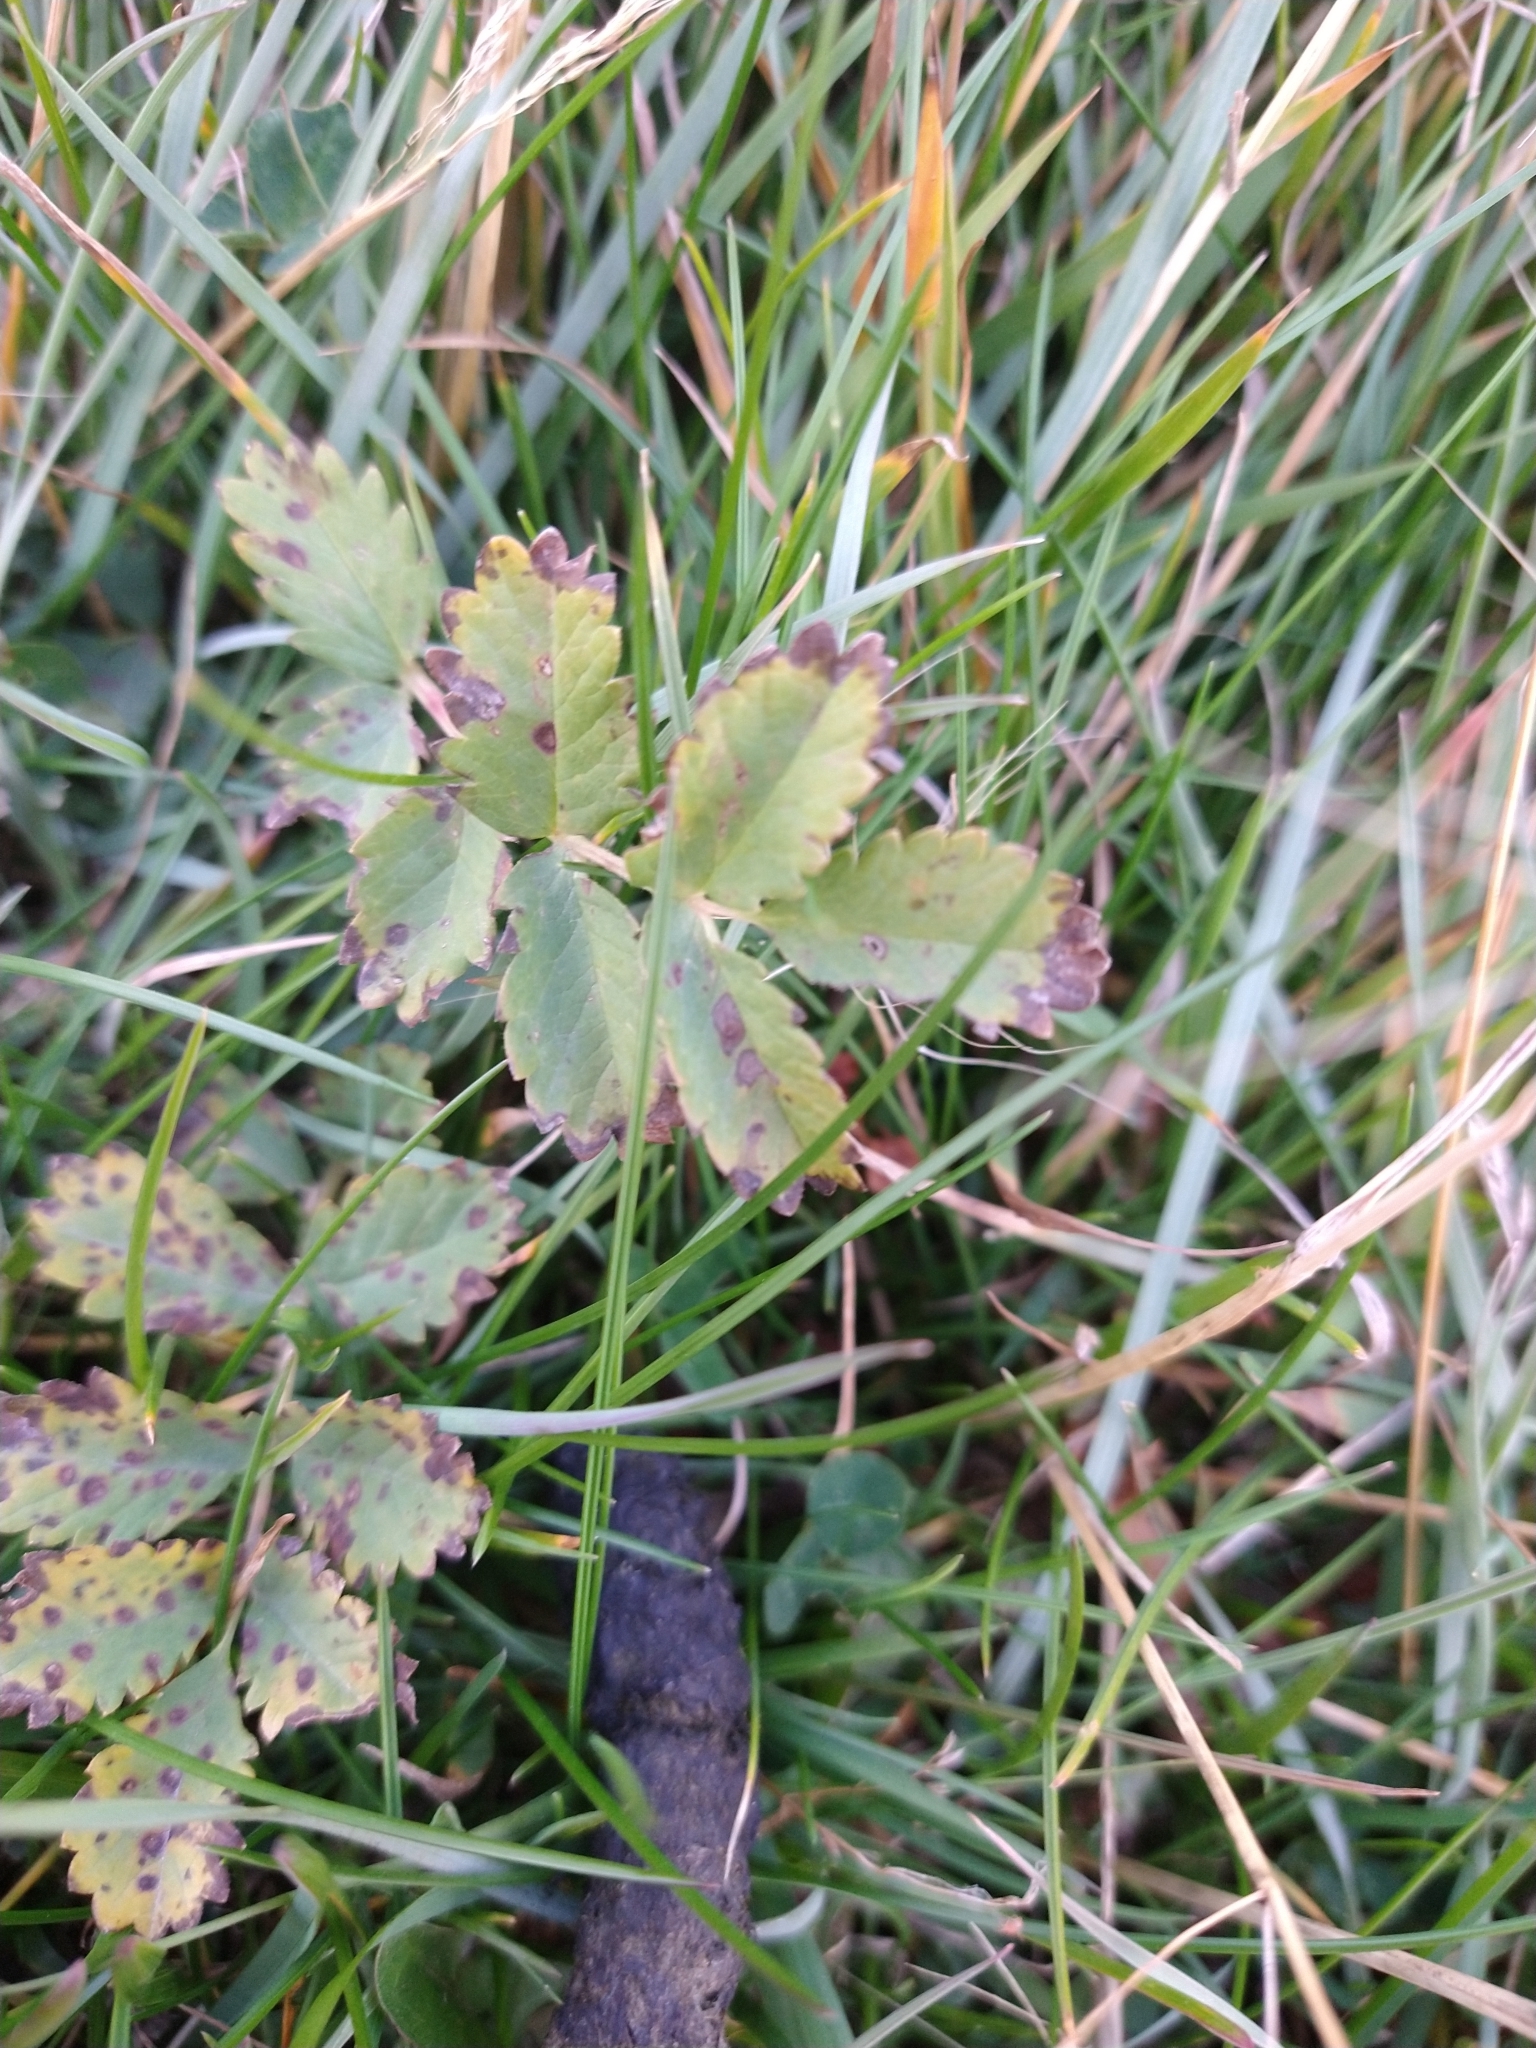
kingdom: Plantae
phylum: Tracheophyta
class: Magnoliopsida
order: Rosales
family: Rosaceae
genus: Acaena
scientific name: Acaena ovalifolia
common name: Two-spined acaena
